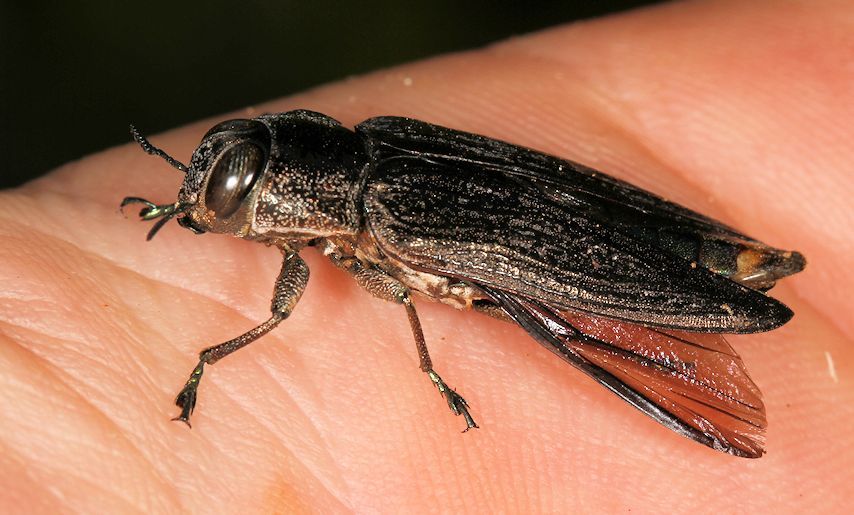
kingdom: Animalia
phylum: Arthropoda
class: Insecta
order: Coleoptera
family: Buprestidae
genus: Megactenodes
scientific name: Megactenodes reticulata
